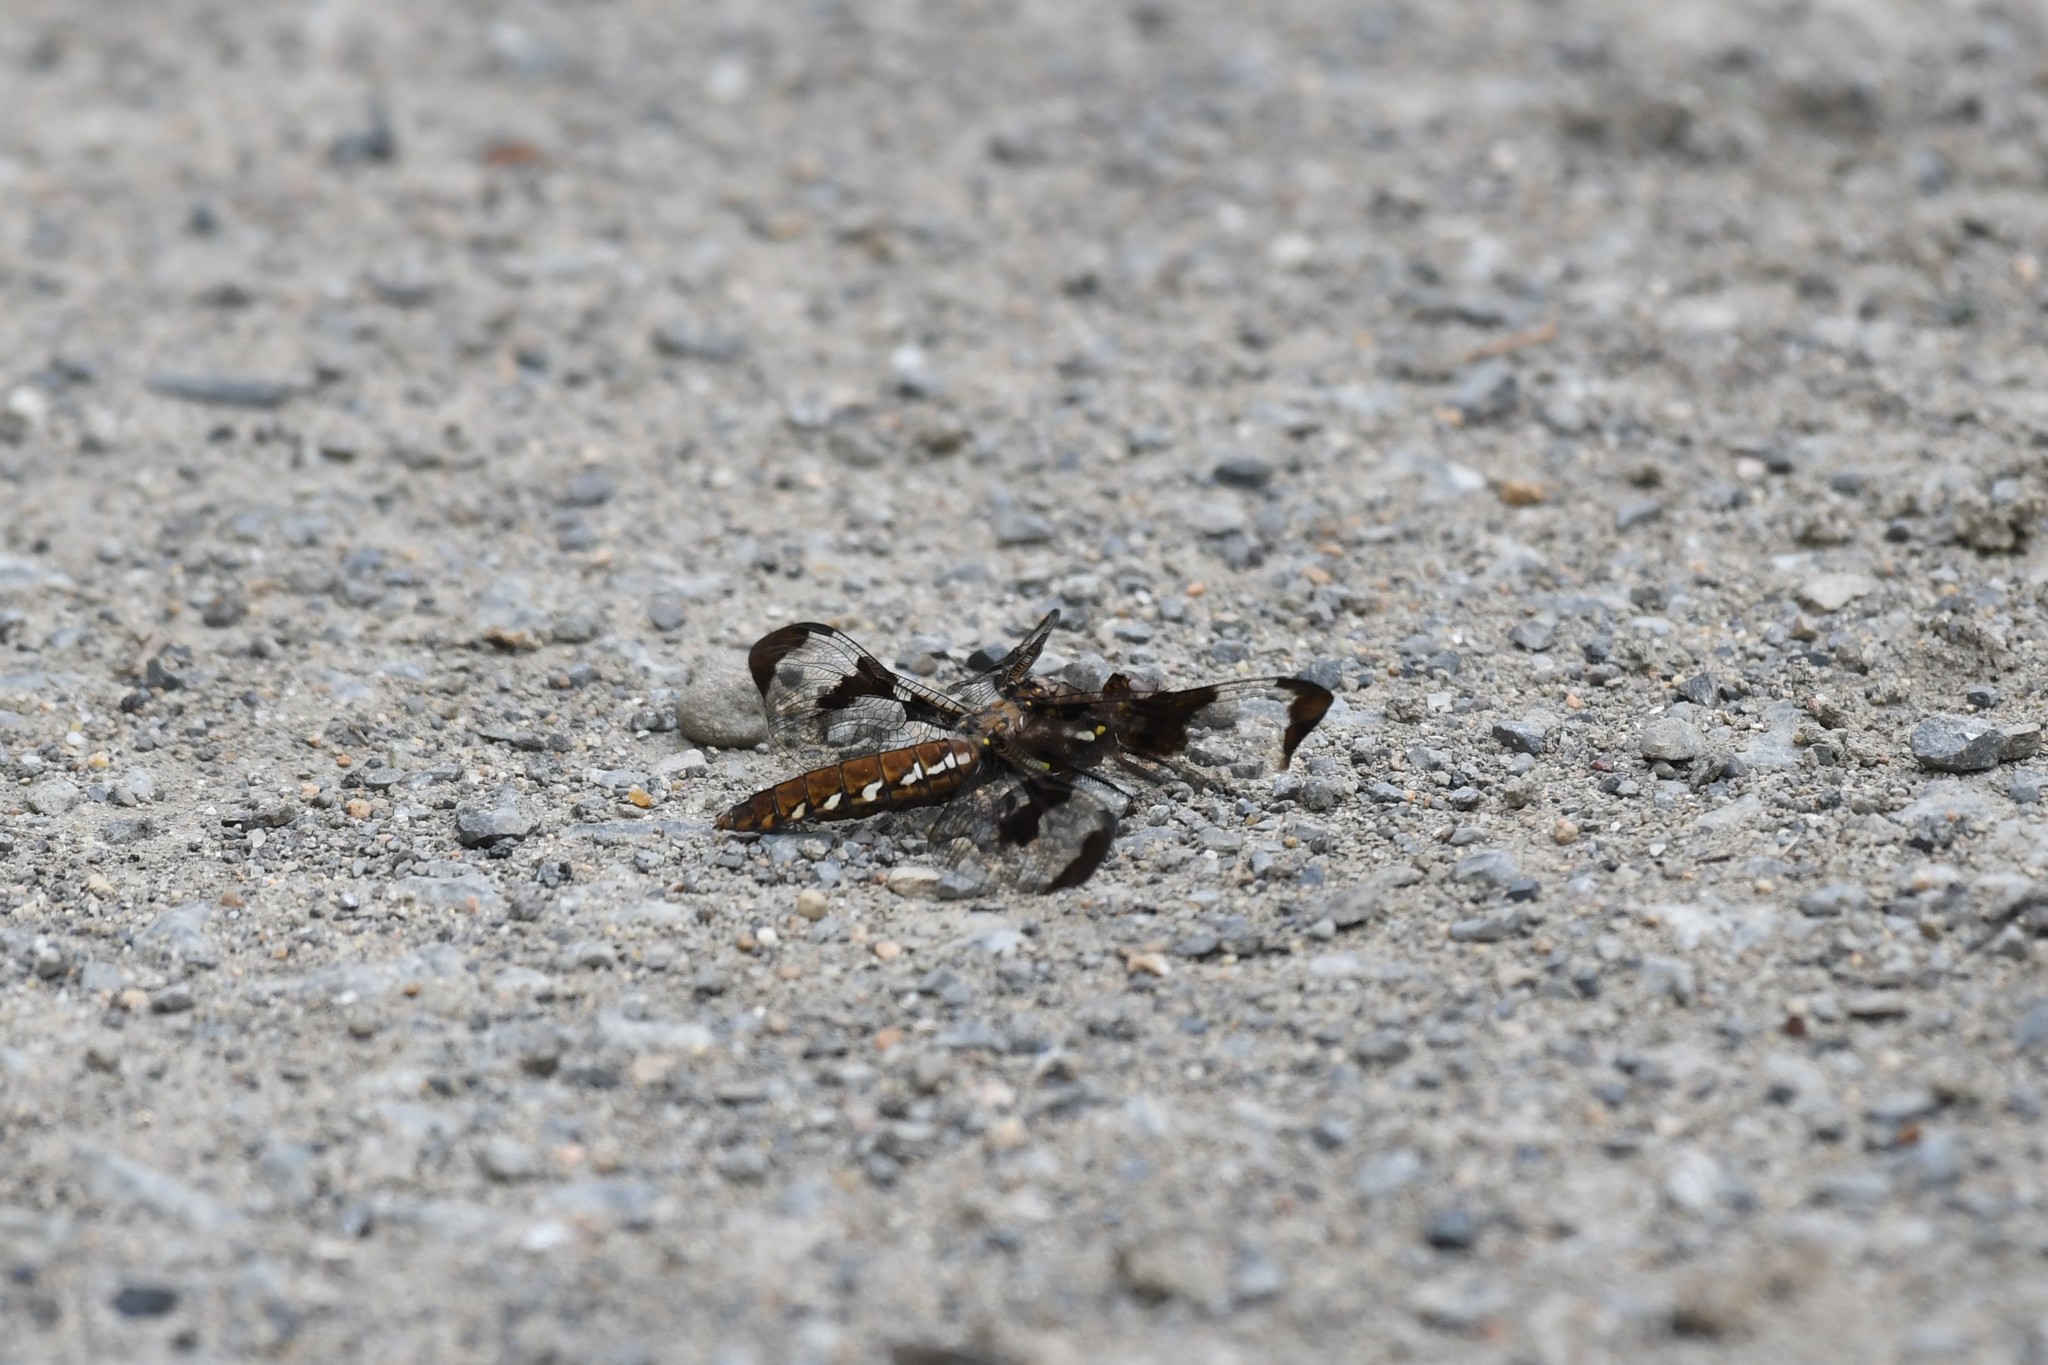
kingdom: Animalia
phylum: Arthropoda
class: Insecta
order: Odonata
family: Libellulidae
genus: Plathemis
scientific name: Plathemis lydia
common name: Common whitetail
